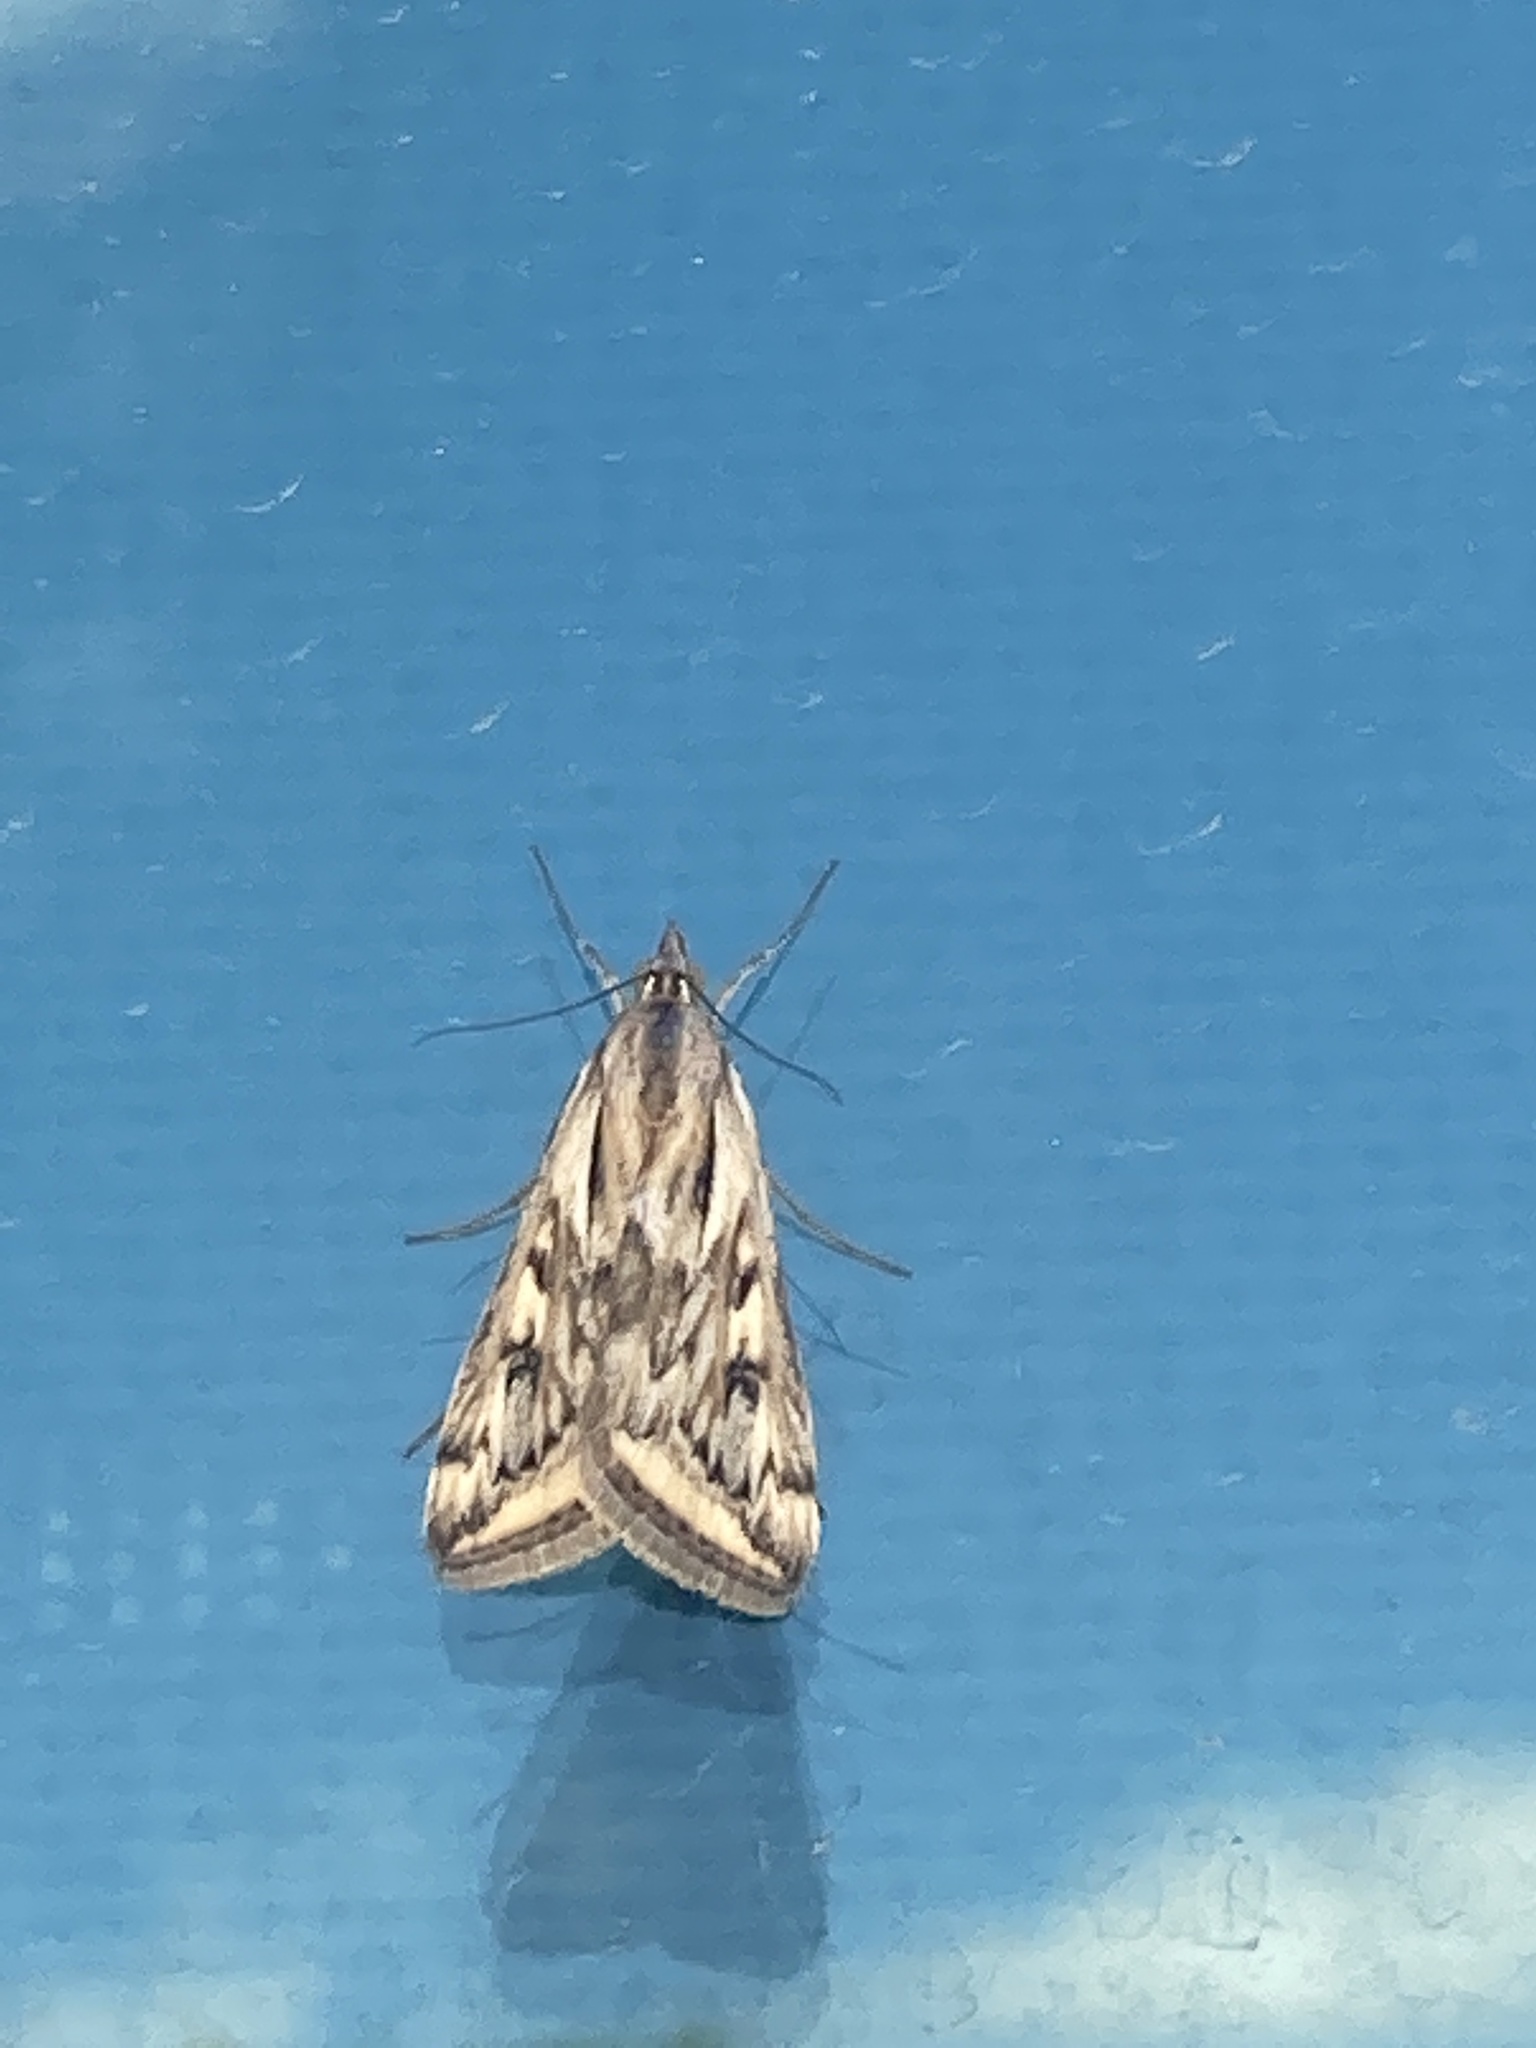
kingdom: Animalia
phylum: Arthropoda
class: Insecta
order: Lepidoptera
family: Crambidae
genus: Loxostege
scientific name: Loxostege cereralis
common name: Alfalfa webworm moth
